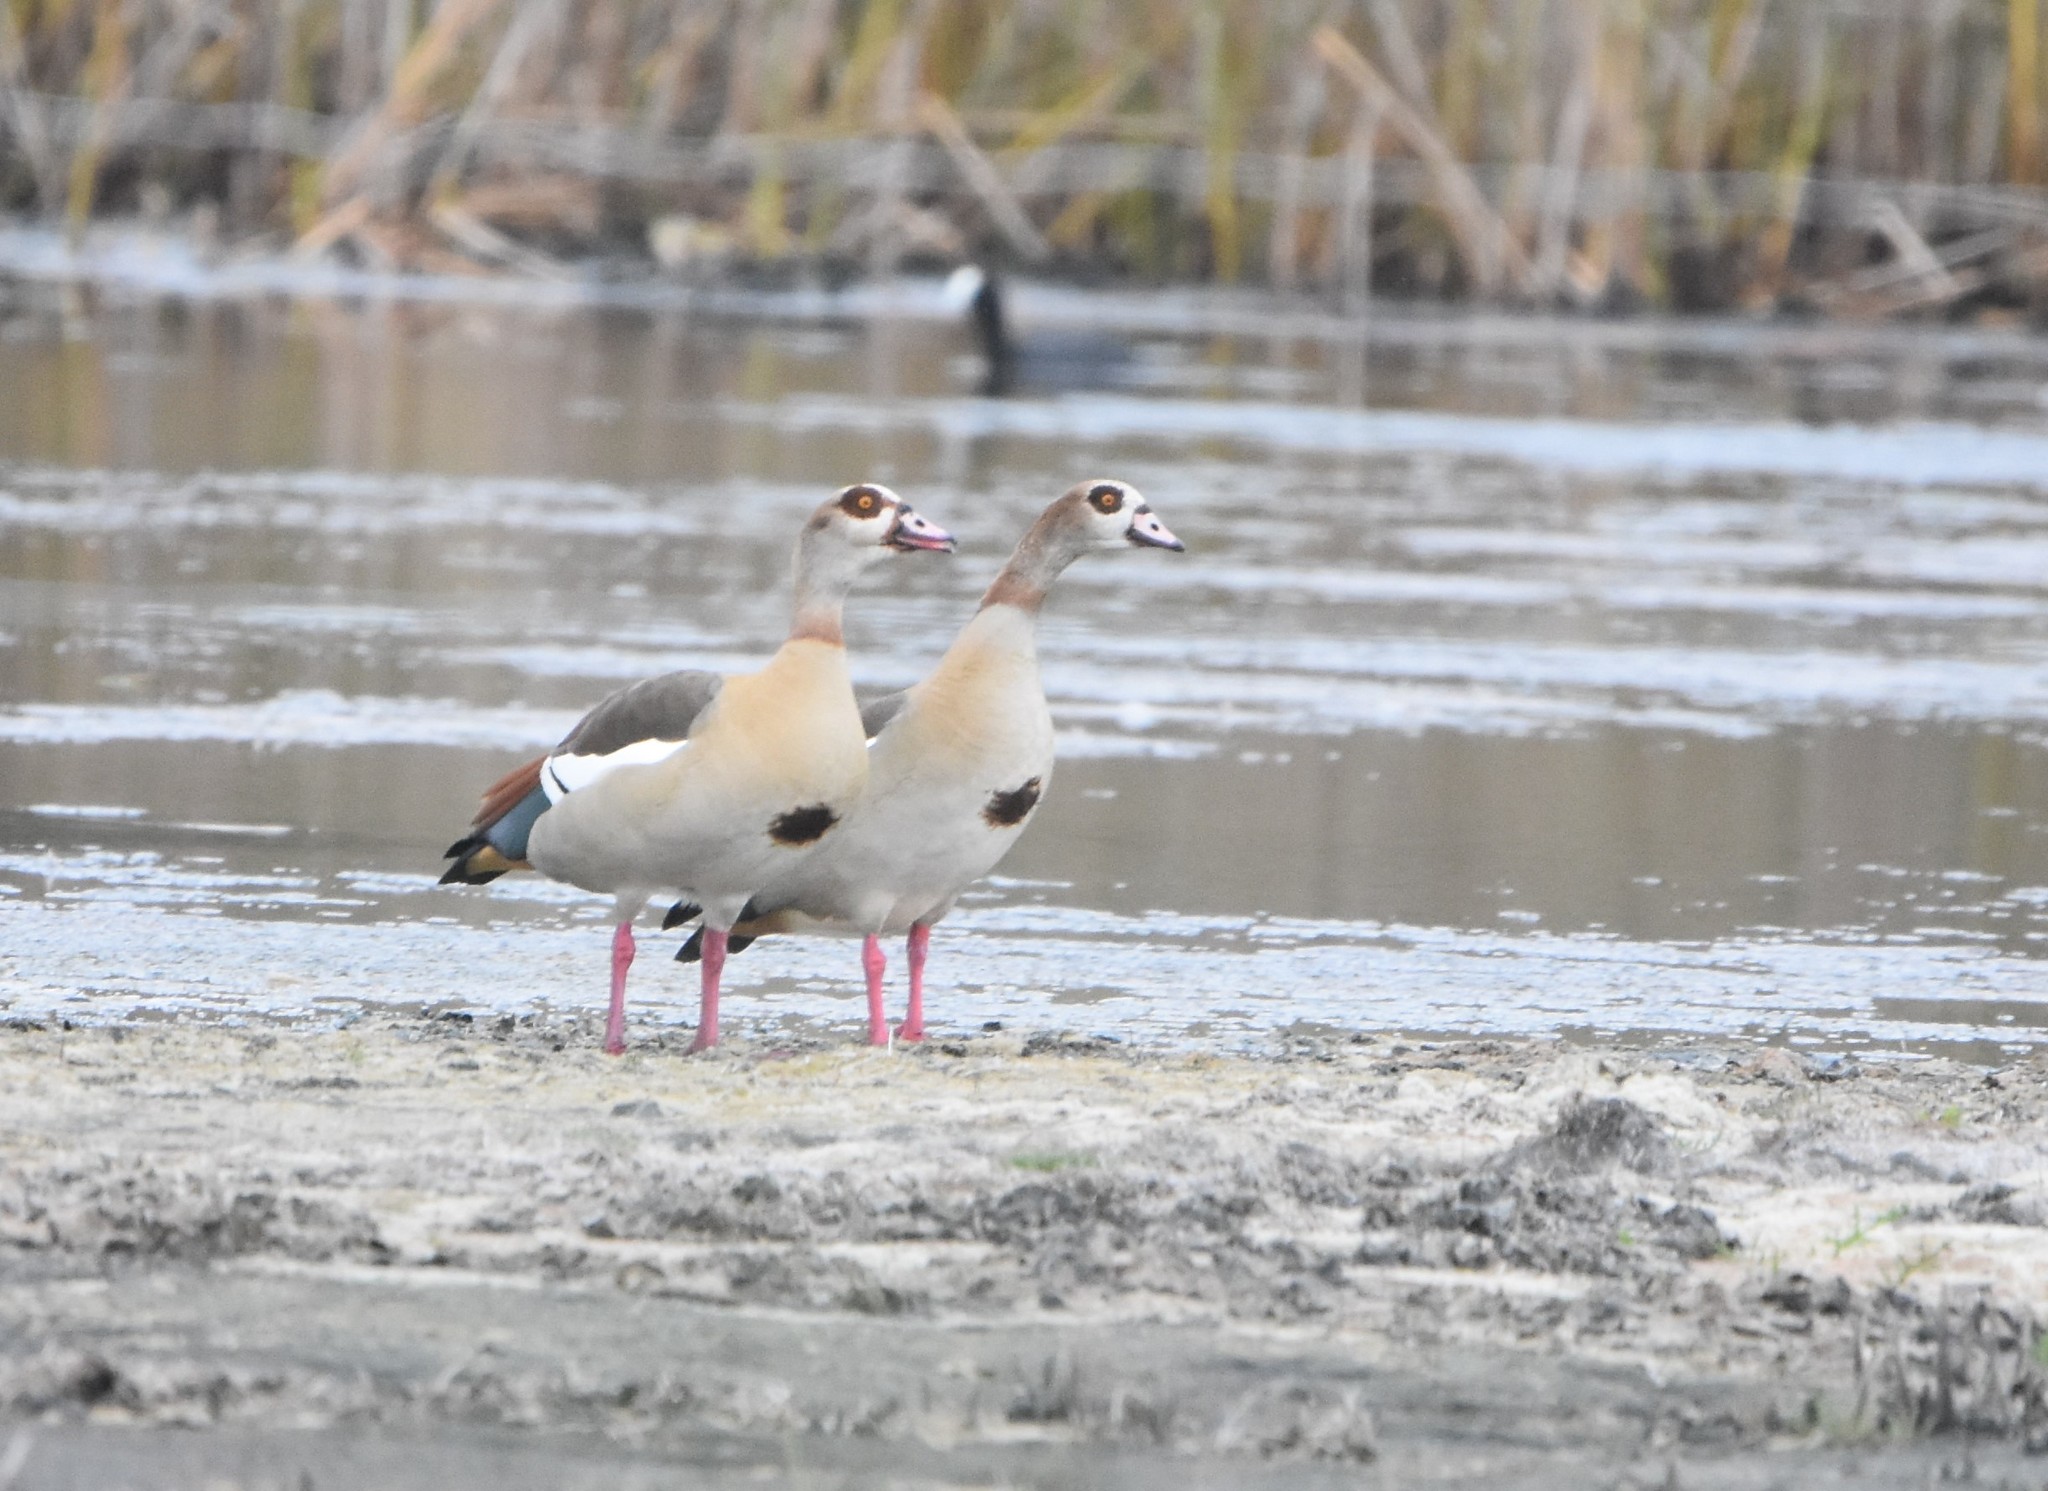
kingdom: Animalia
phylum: Chordata
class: Aves
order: Anseriformes
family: Anatidae
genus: Alopochen
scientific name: Alopochen aegyptiaca
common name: Egyptian goose
